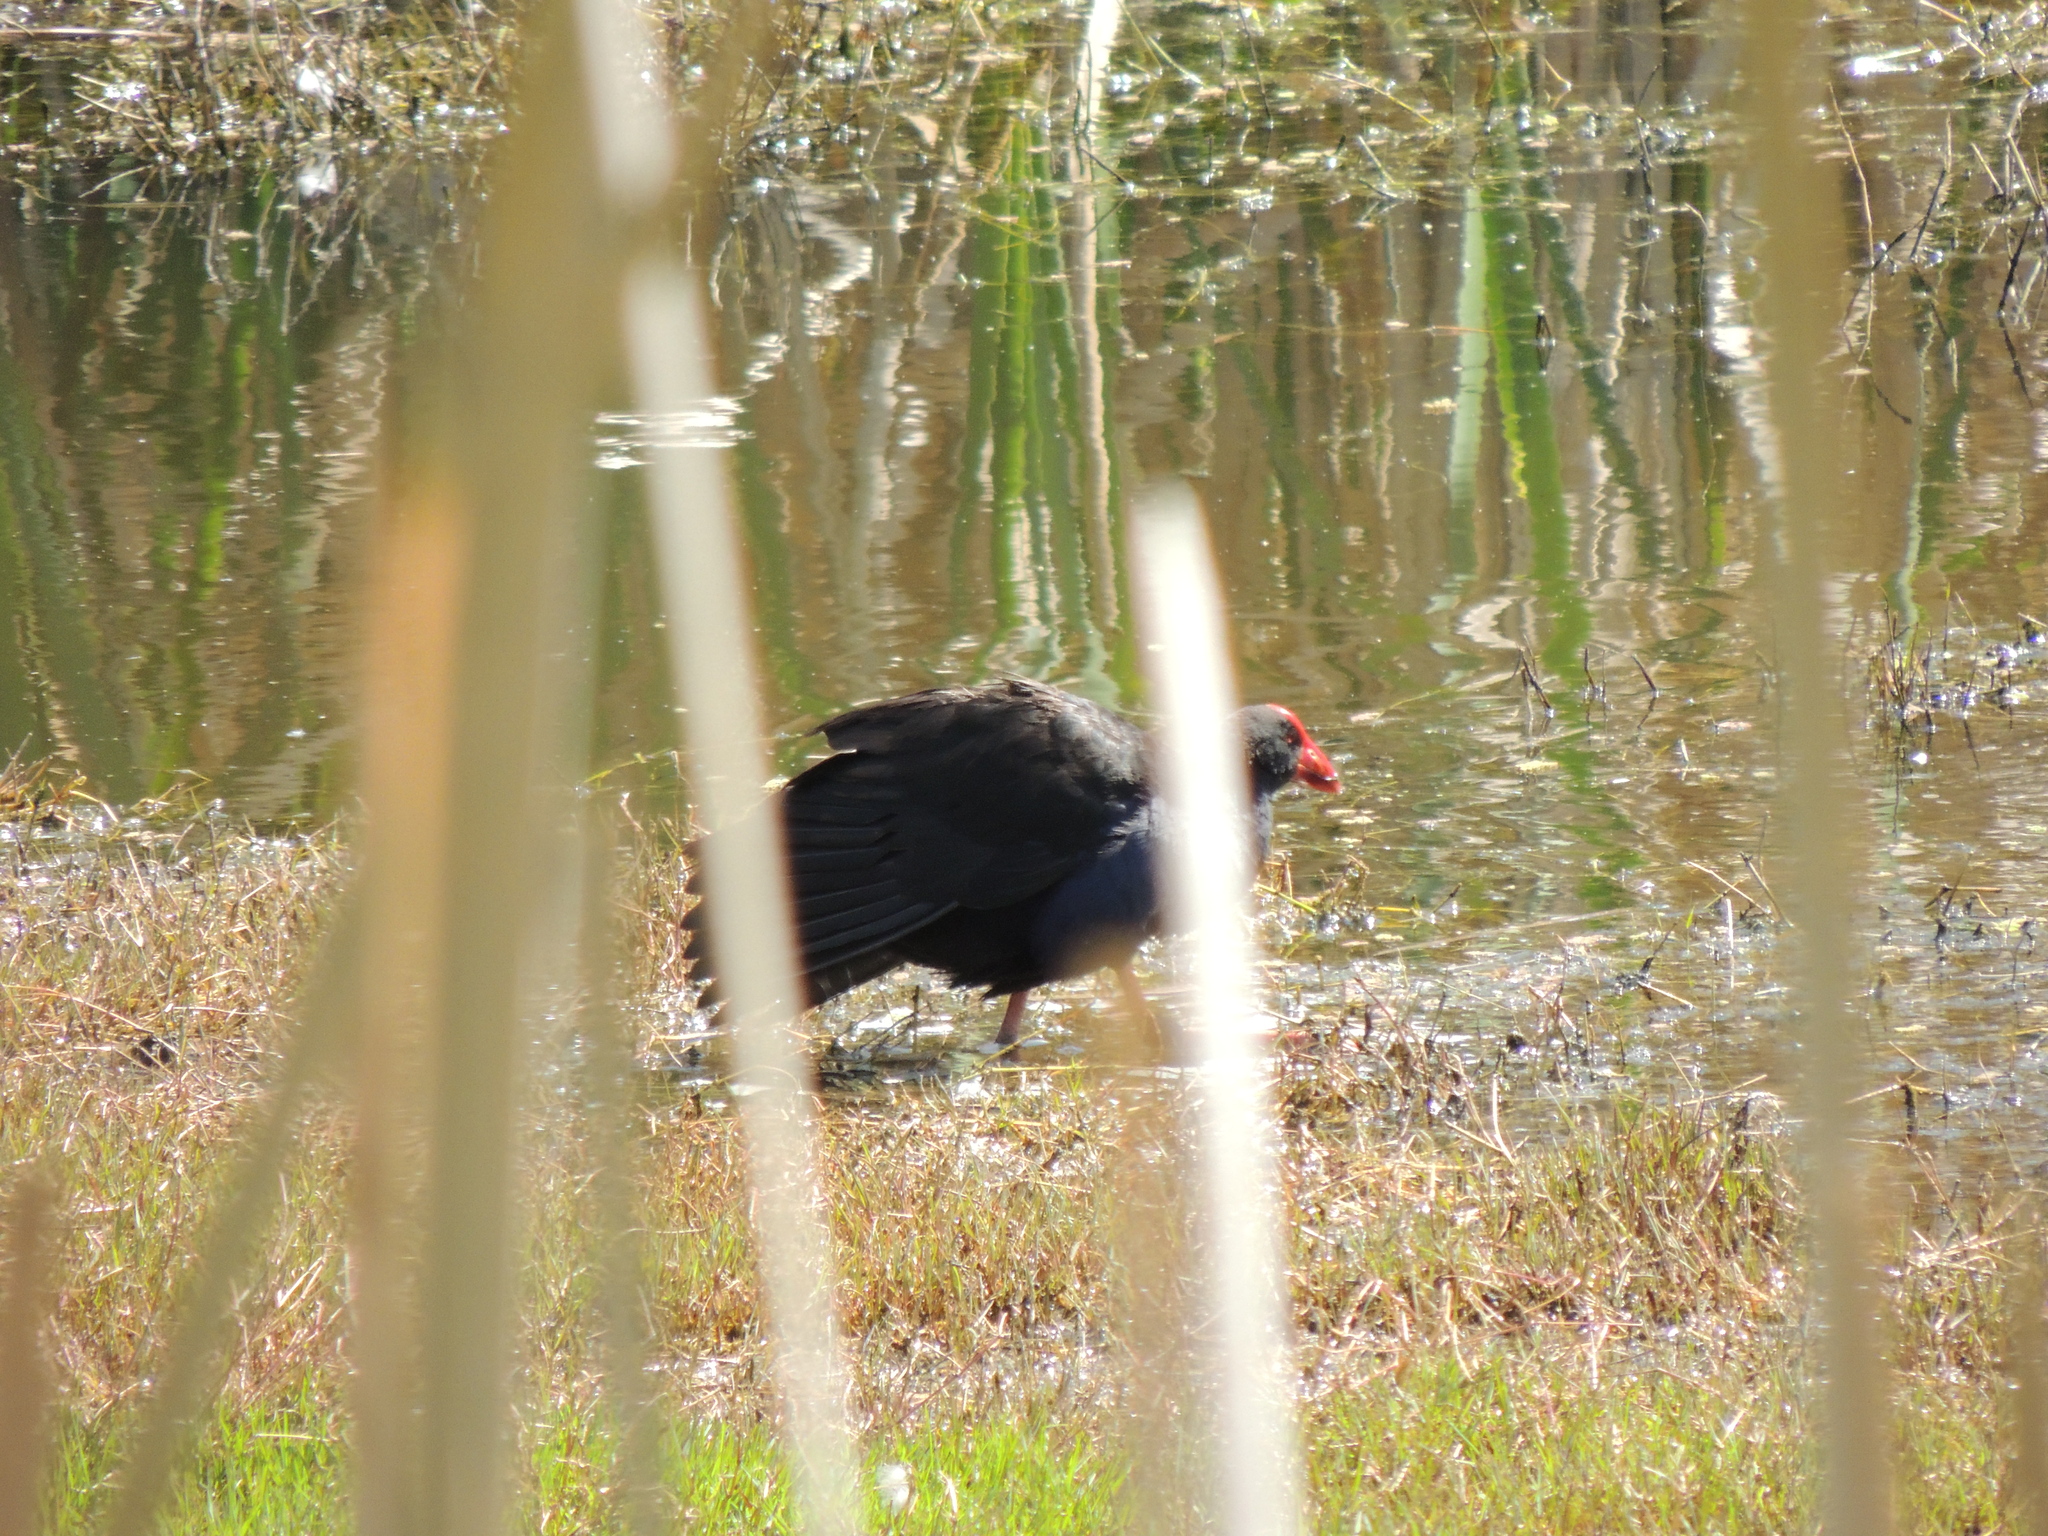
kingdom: Animalia
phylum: Chordata
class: Aves
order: Gruiformes
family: Rallidae
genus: Porphyrio
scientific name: Porphyrio melanotus
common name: Australasian swamphen
